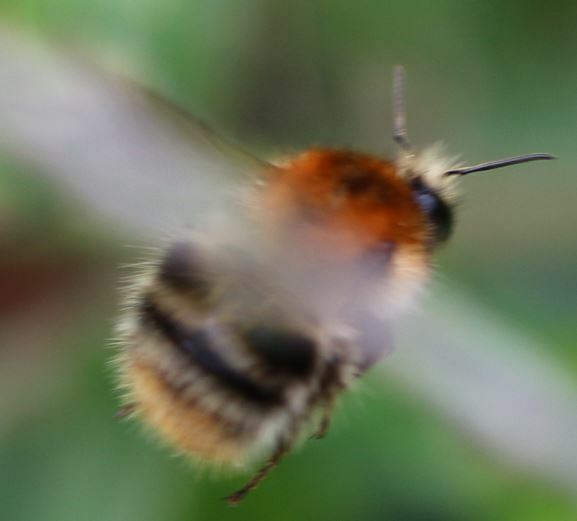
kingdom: Animalia
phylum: Arthropoda
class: Insecta
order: Hymenoptera
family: Apidae
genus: Bombus
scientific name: Bombus pascuorum
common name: Common carder bee
